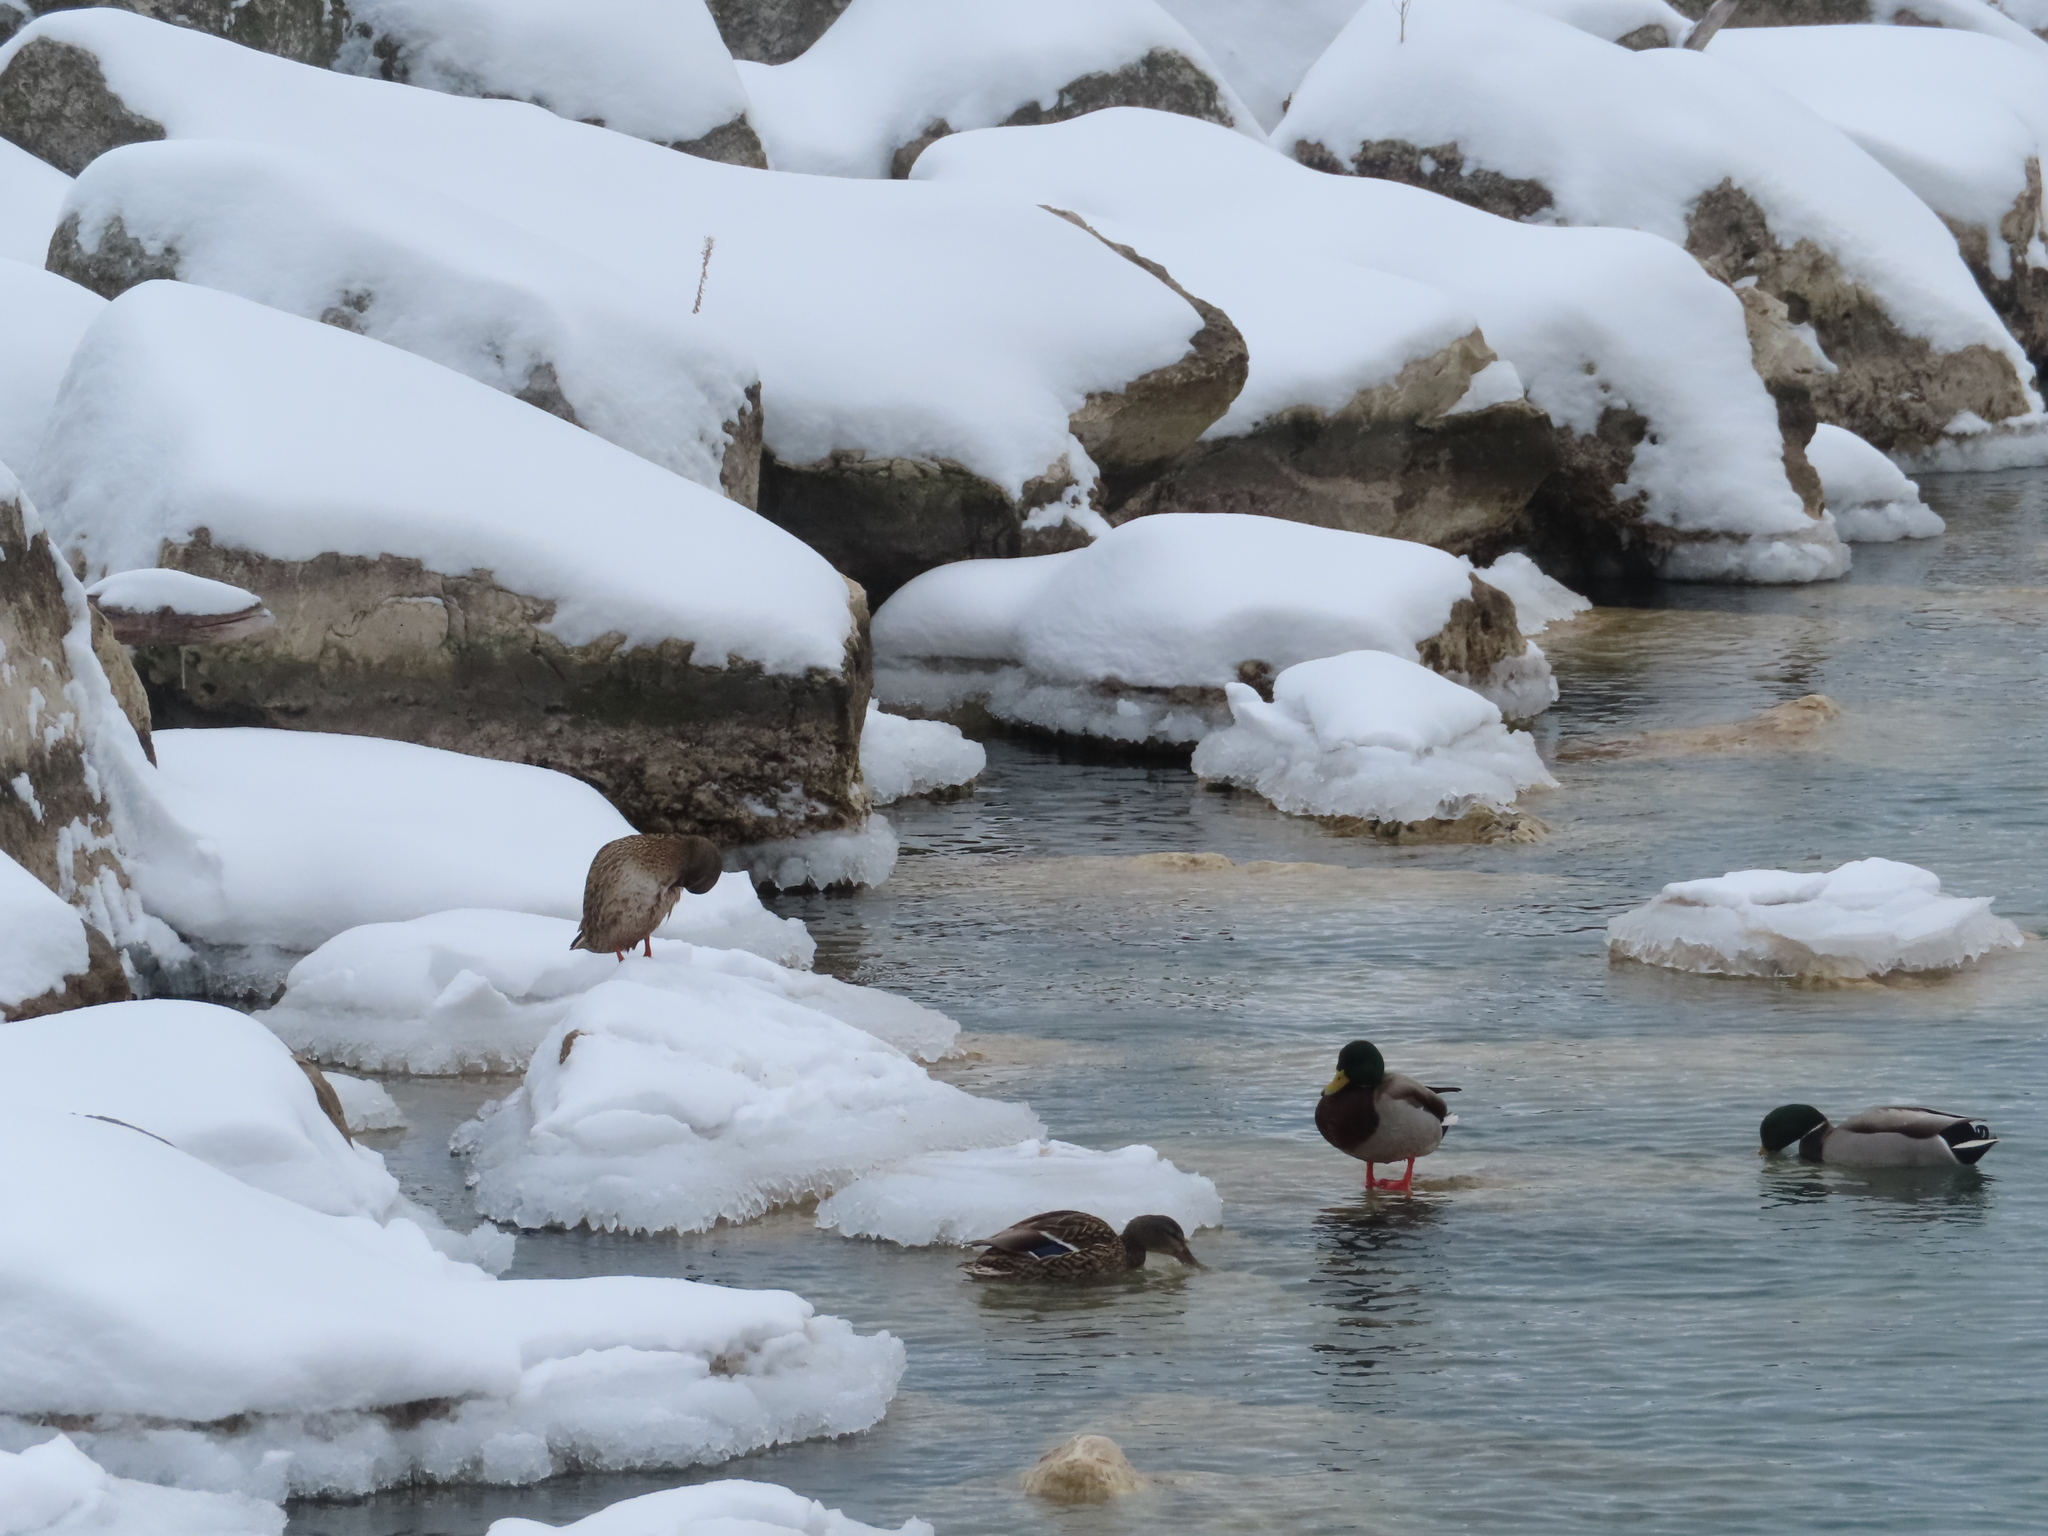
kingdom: Animalia
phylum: Chordata
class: Aves
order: Anseriformes
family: Anatidae
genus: Anas
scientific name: Anas platyrhynchos
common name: Mallard
